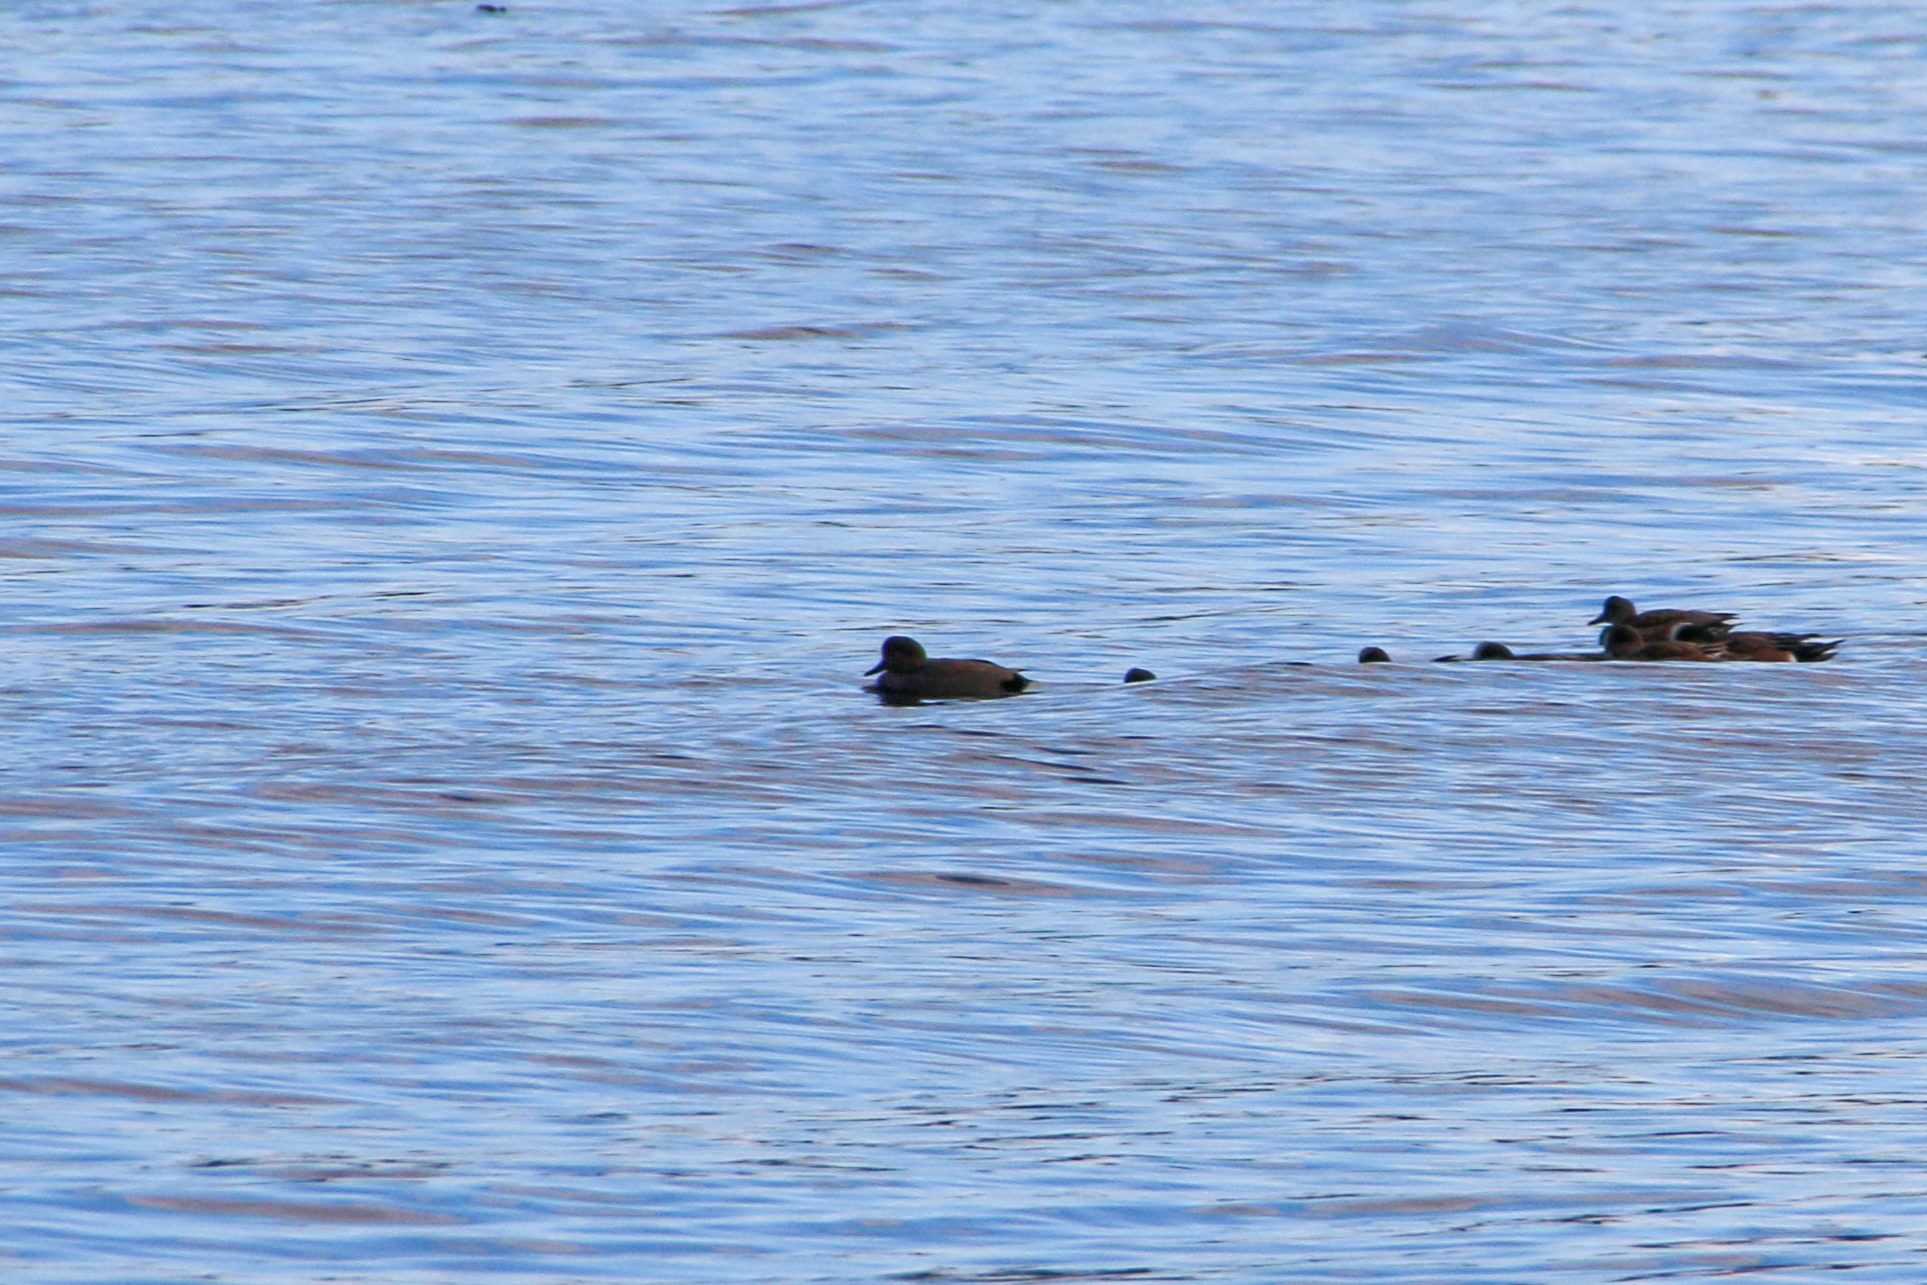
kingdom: Animalia
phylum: Chordata
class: Aves
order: Anseriformes
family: Anatidae
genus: Mareca
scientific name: Mareca strepera
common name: Gadwall
